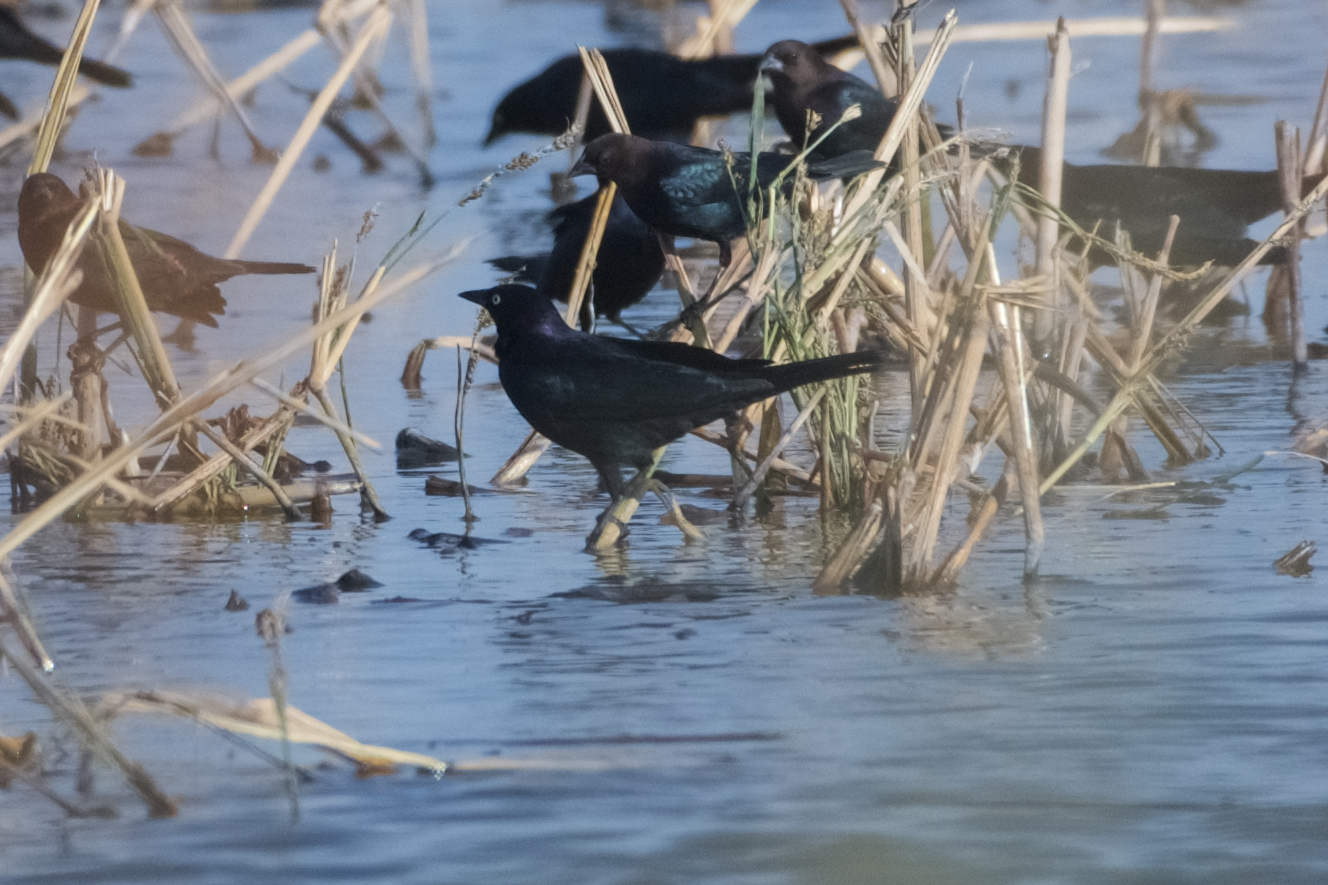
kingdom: Animalia
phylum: Chordata
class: Aves
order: Passeriformes
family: Icteridae
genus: Euphagus
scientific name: Euphagus cyanocephalus
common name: Brewer's blackbird
